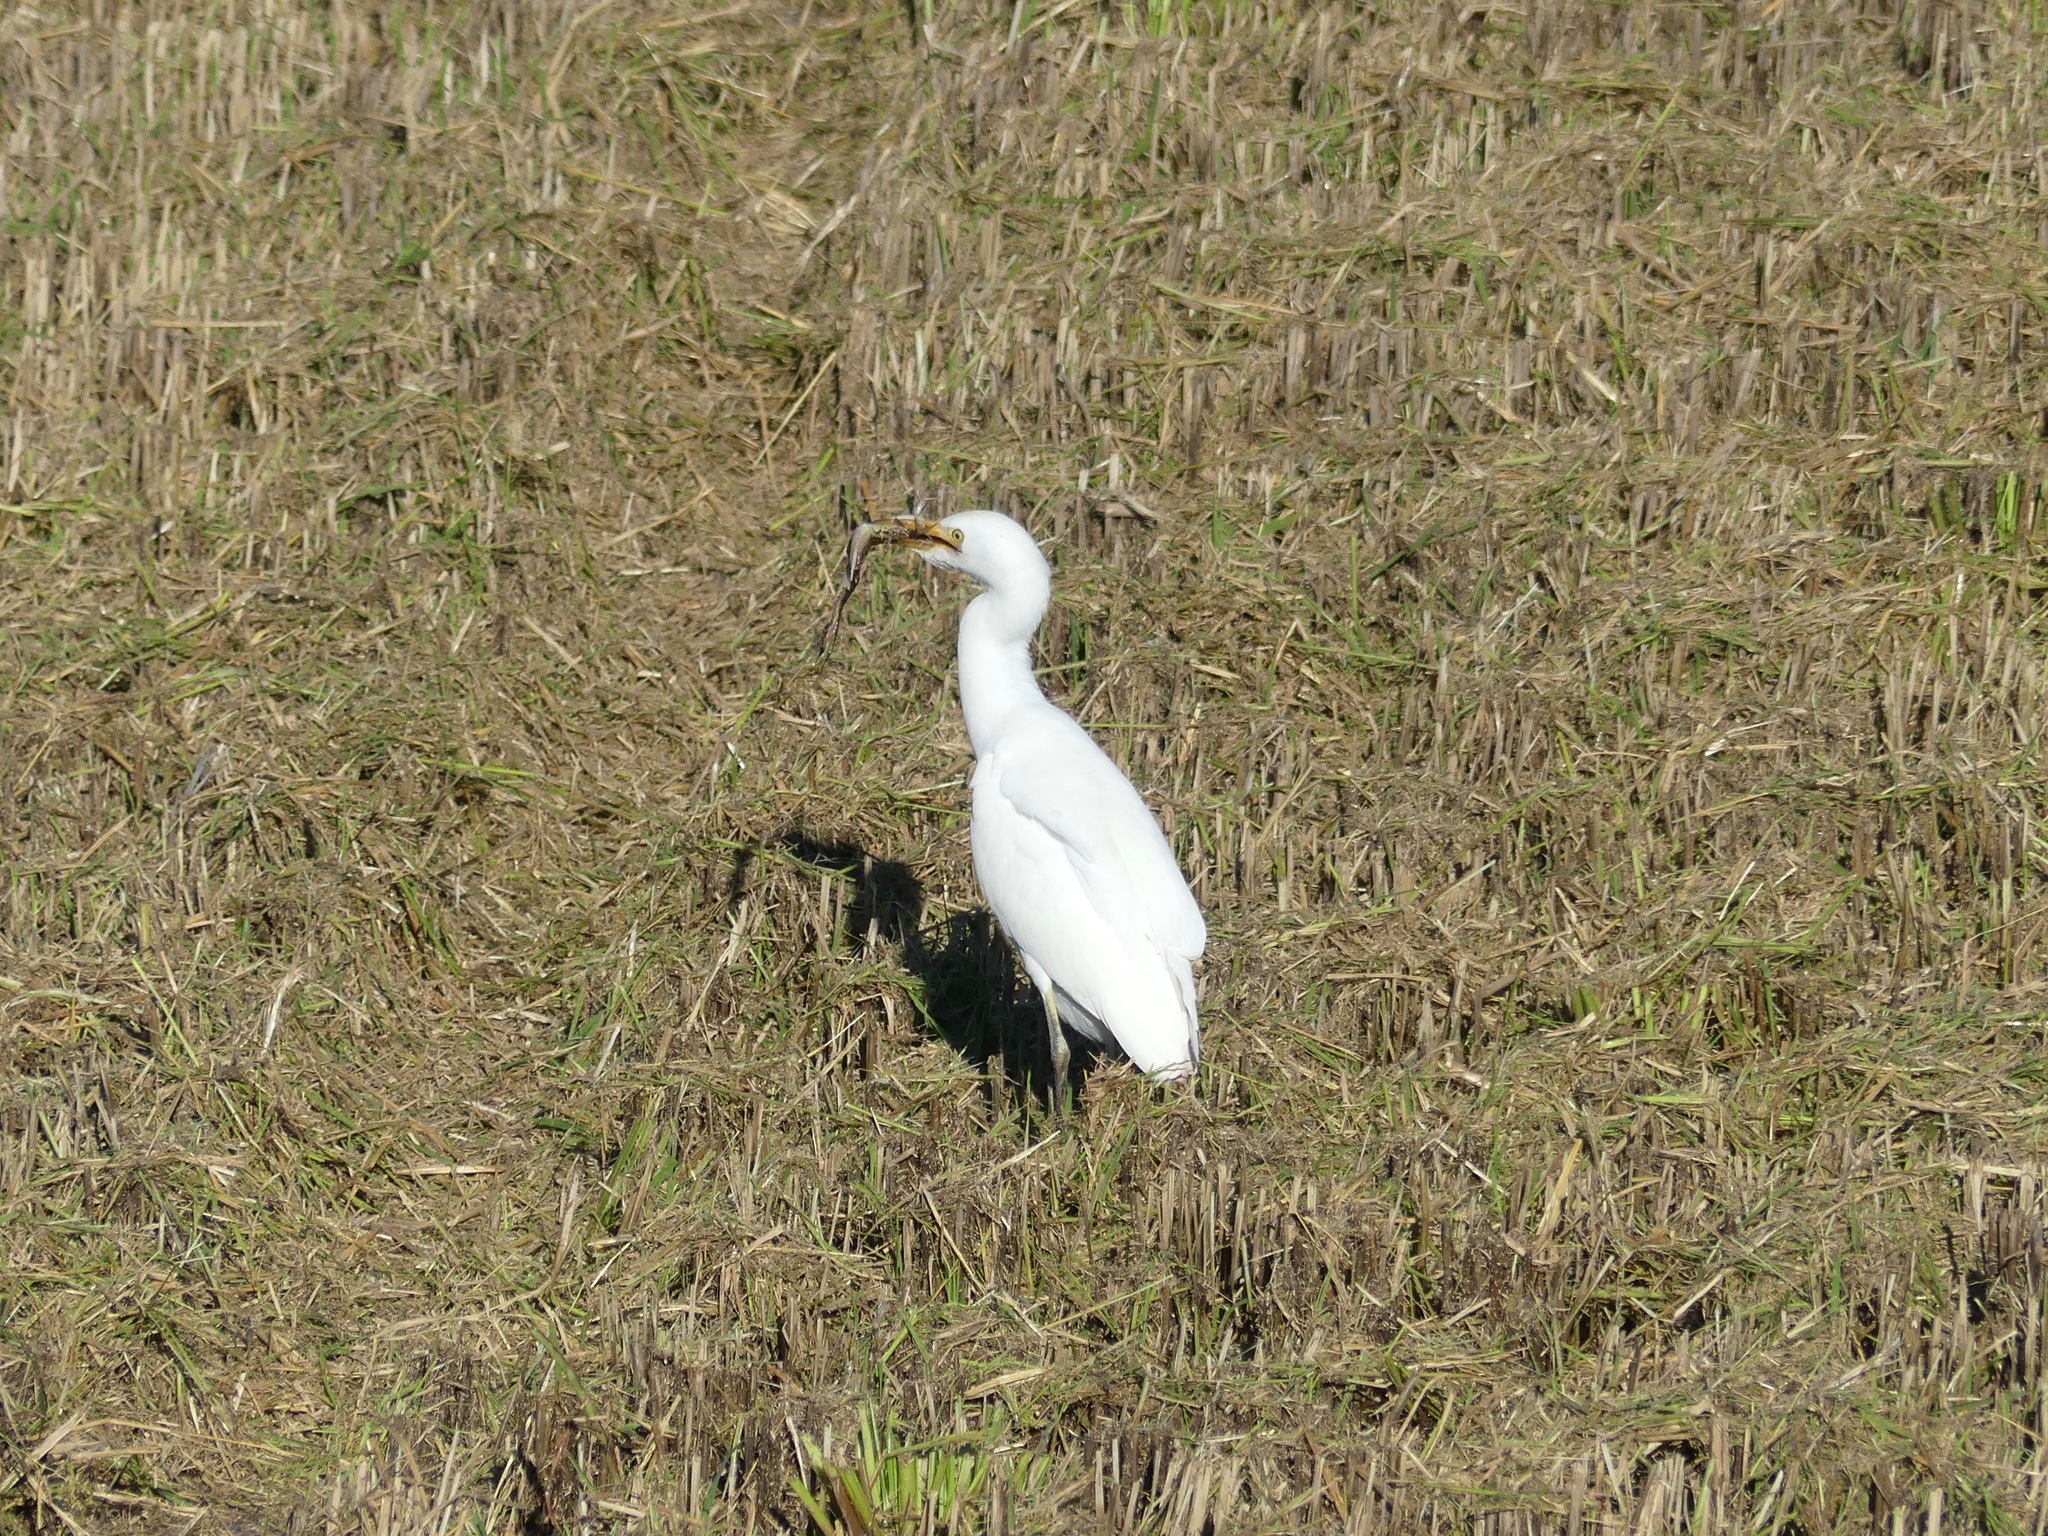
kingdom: Animalia
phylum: Chordata
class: Aves
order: Pelecaniformes
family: Ardeidae
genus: Bubulcus
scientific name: Bubulcus ibis
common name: Cattle egret
